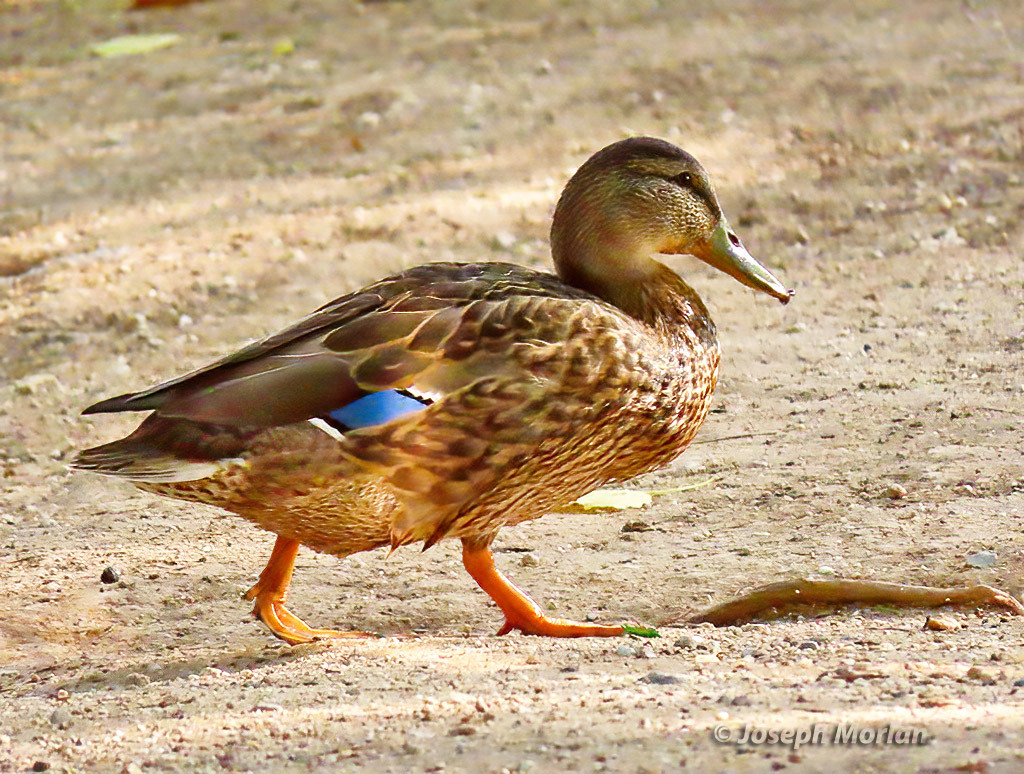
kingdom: Animalia
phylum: Chordata
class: Aves
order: Anseriformes
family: Anatidae
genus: Anas
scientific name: Anas platyrhynchos
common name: Mallard
